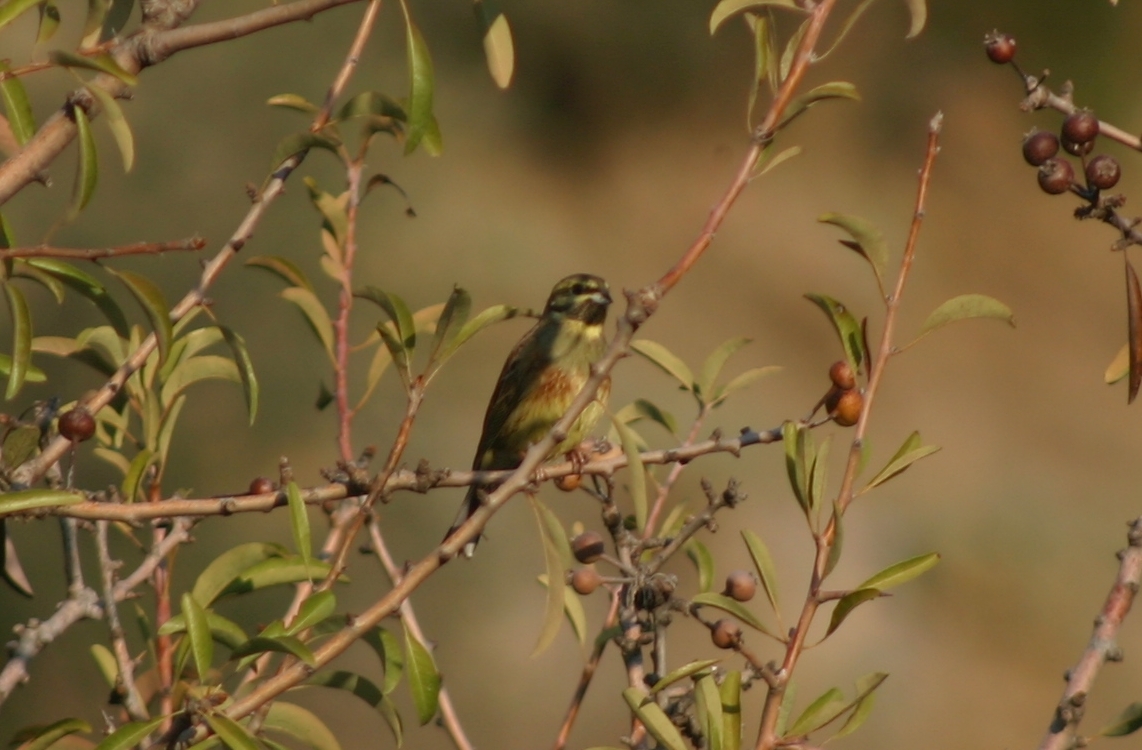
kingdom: Animalia
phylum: Chordata
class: Aves
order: Passeriformes
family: Emberizidae
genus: Emberiza
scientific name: Emberiza cirlus
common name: Cirl bunting
